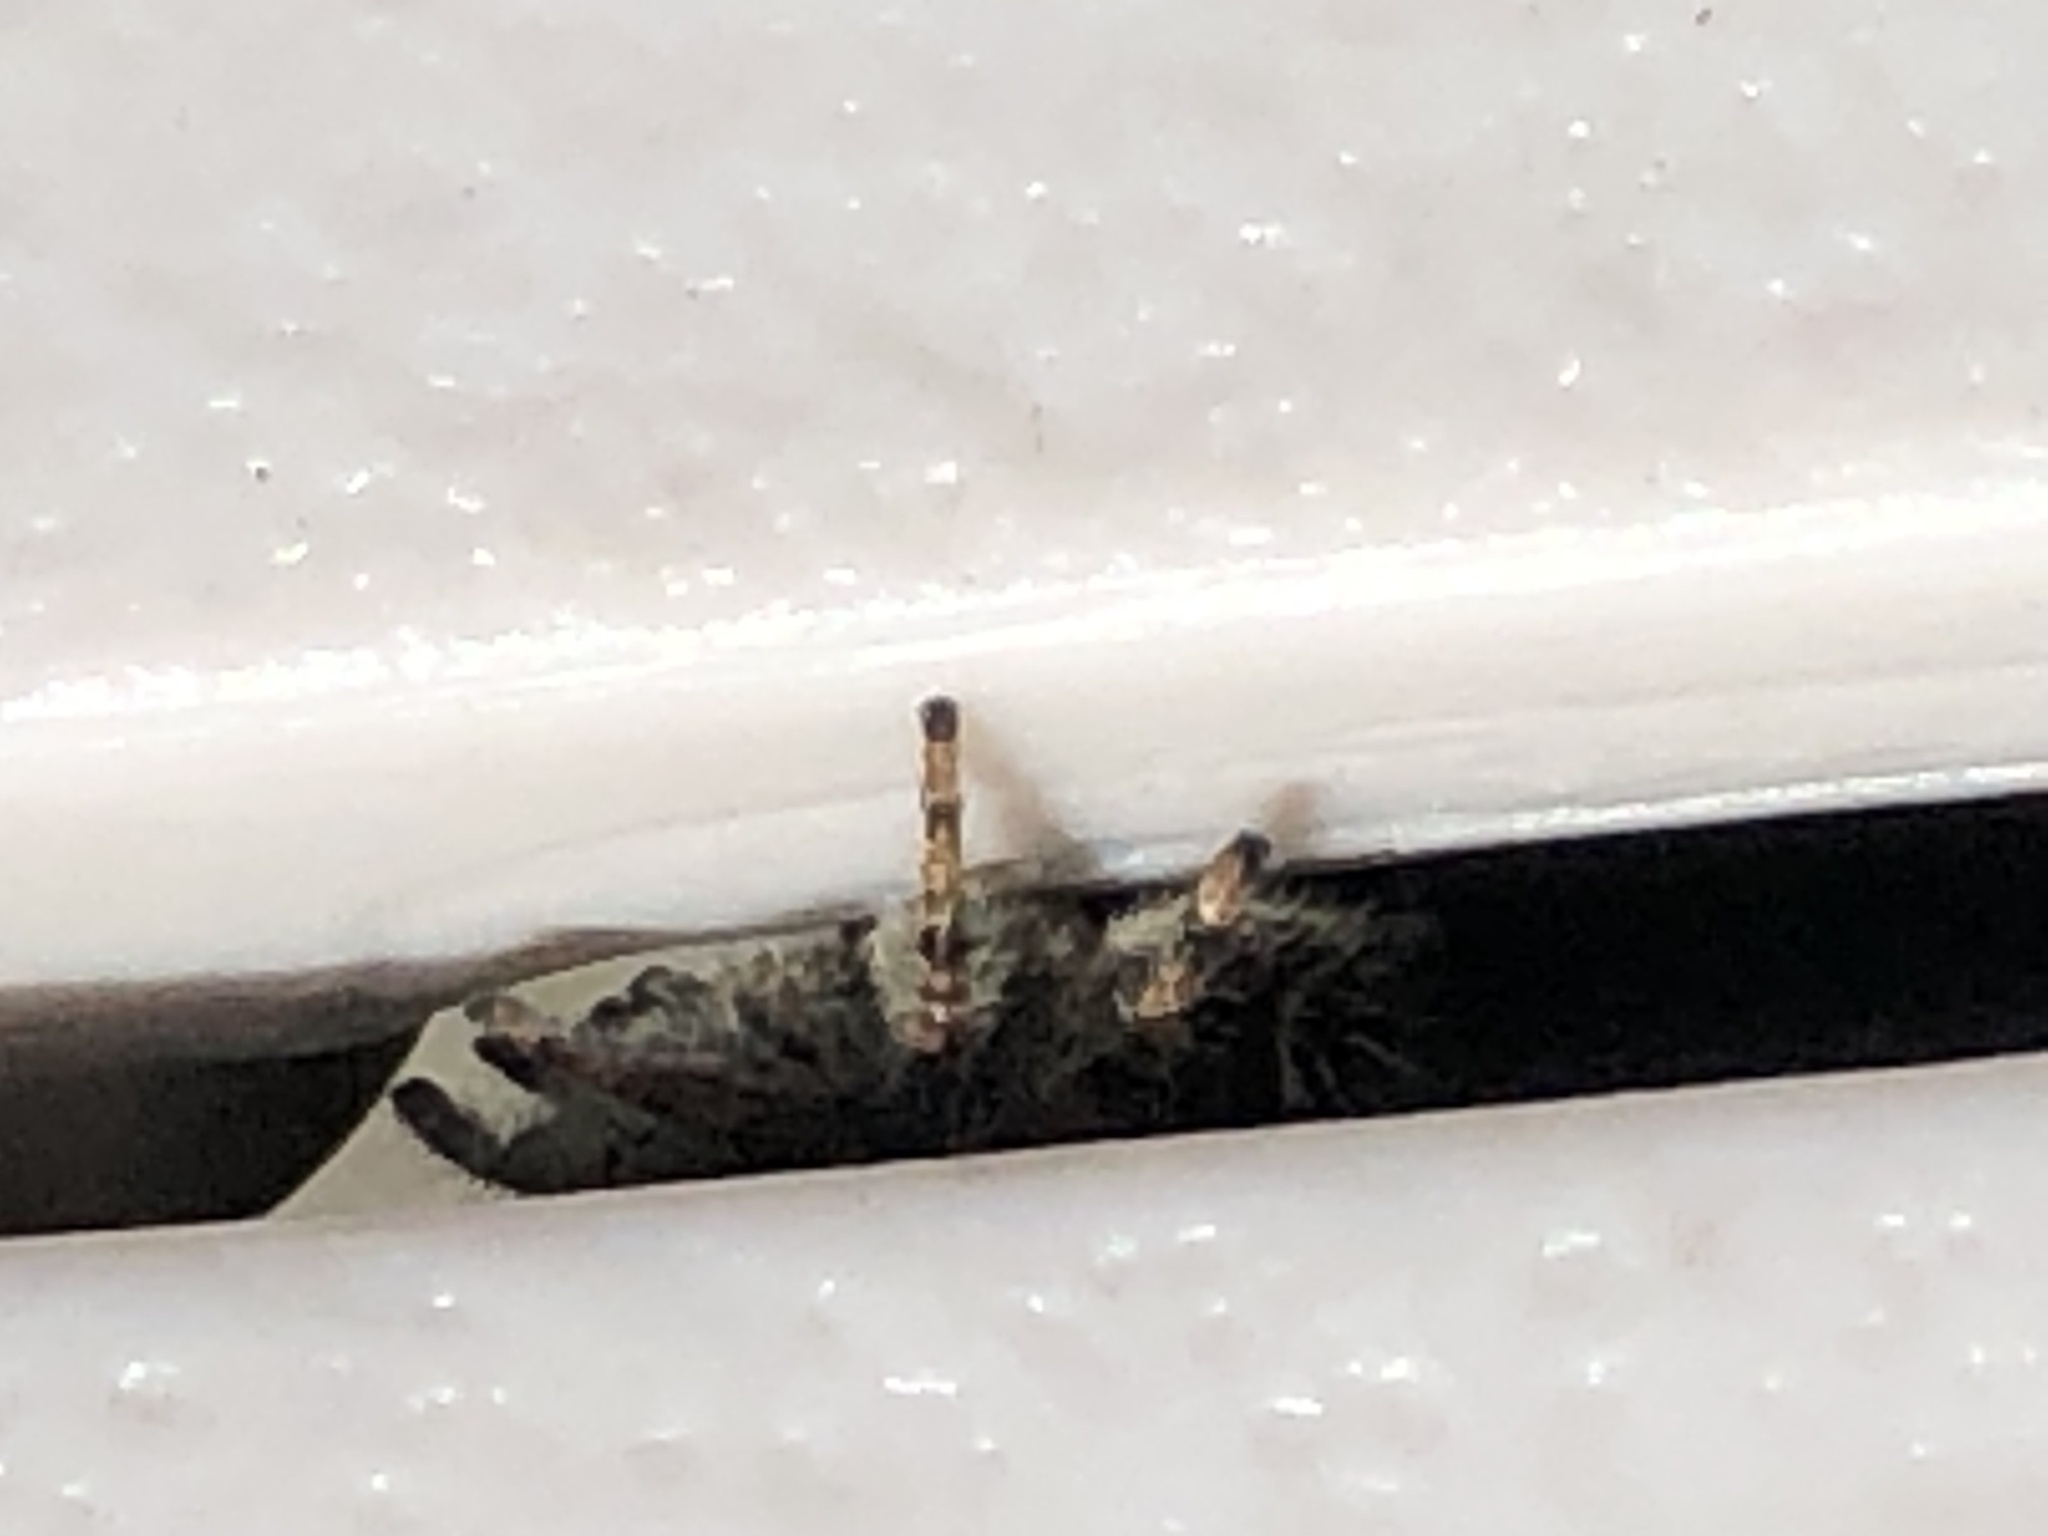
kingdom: Animalia
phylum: Arthropoda
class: Arachnida
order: Araneae
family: Salticidae
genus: Phidippus
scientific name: Phidippus audax
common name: Bold jumper
